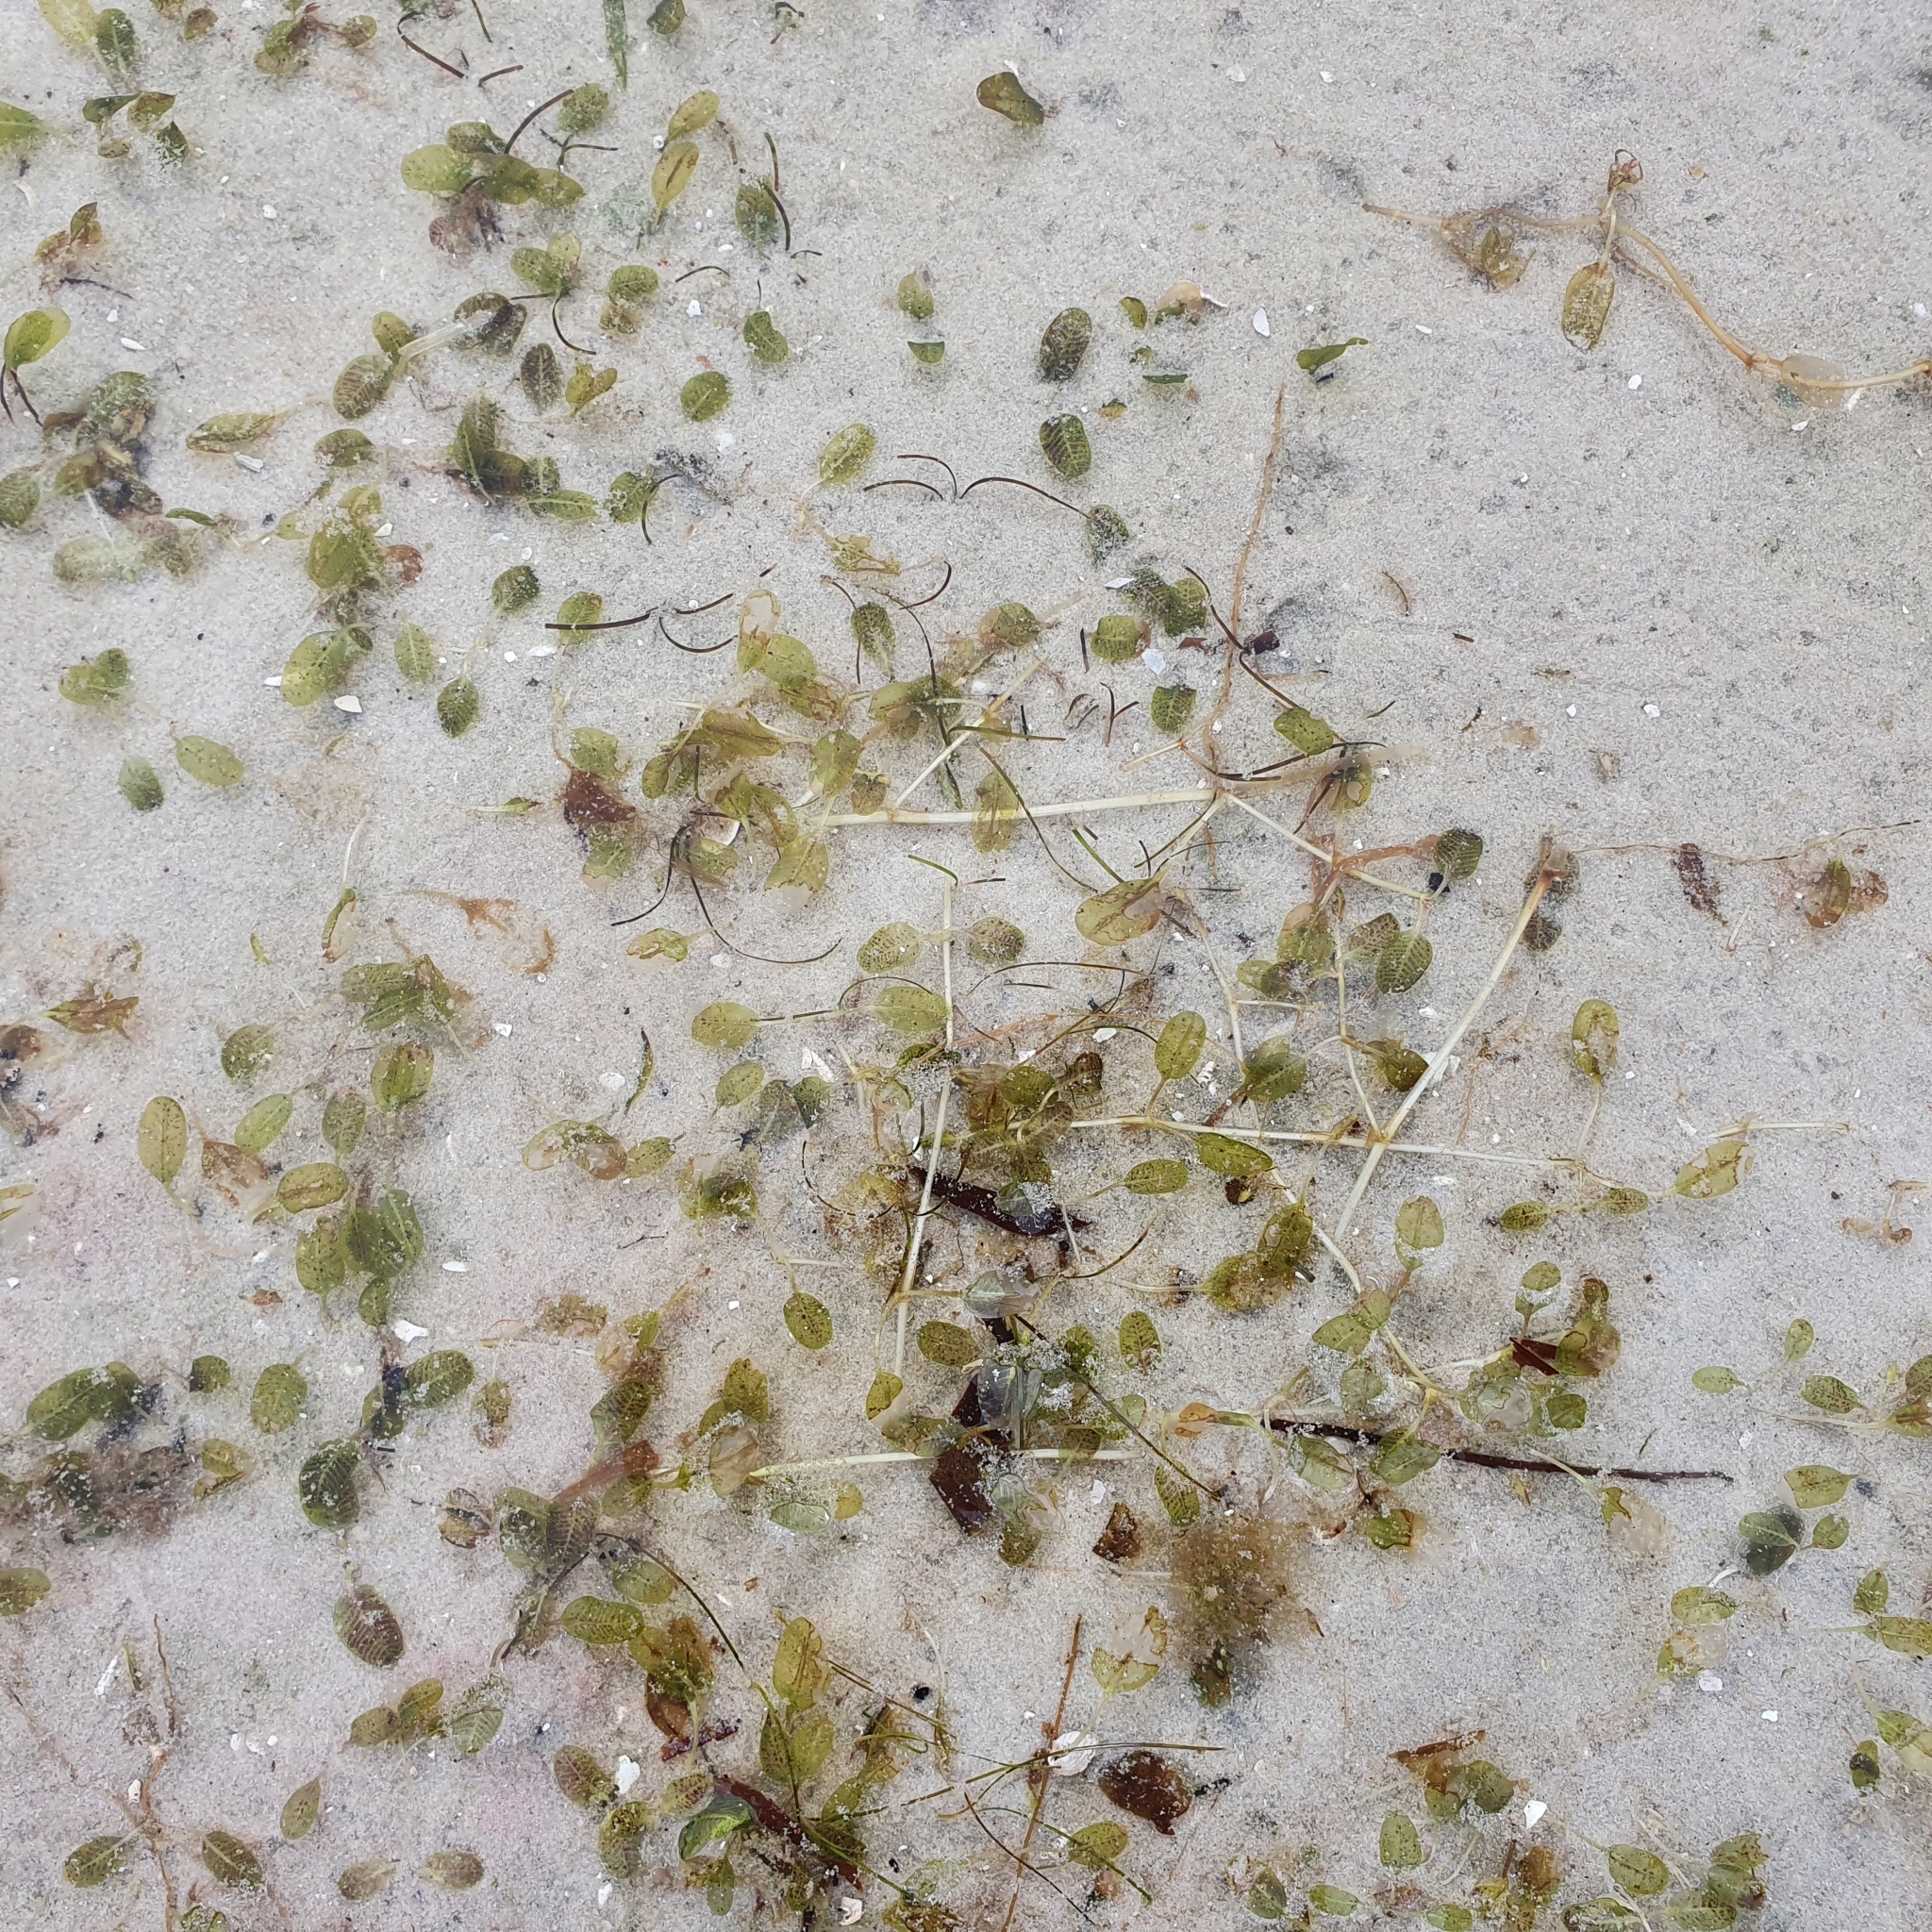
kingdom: Plantae
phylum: Tracheophyta
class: Liliopsida
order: Alismatales
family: Hydrocharitaceae
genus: Halophila
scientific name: Halophila ovalis
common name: Species code: ho
